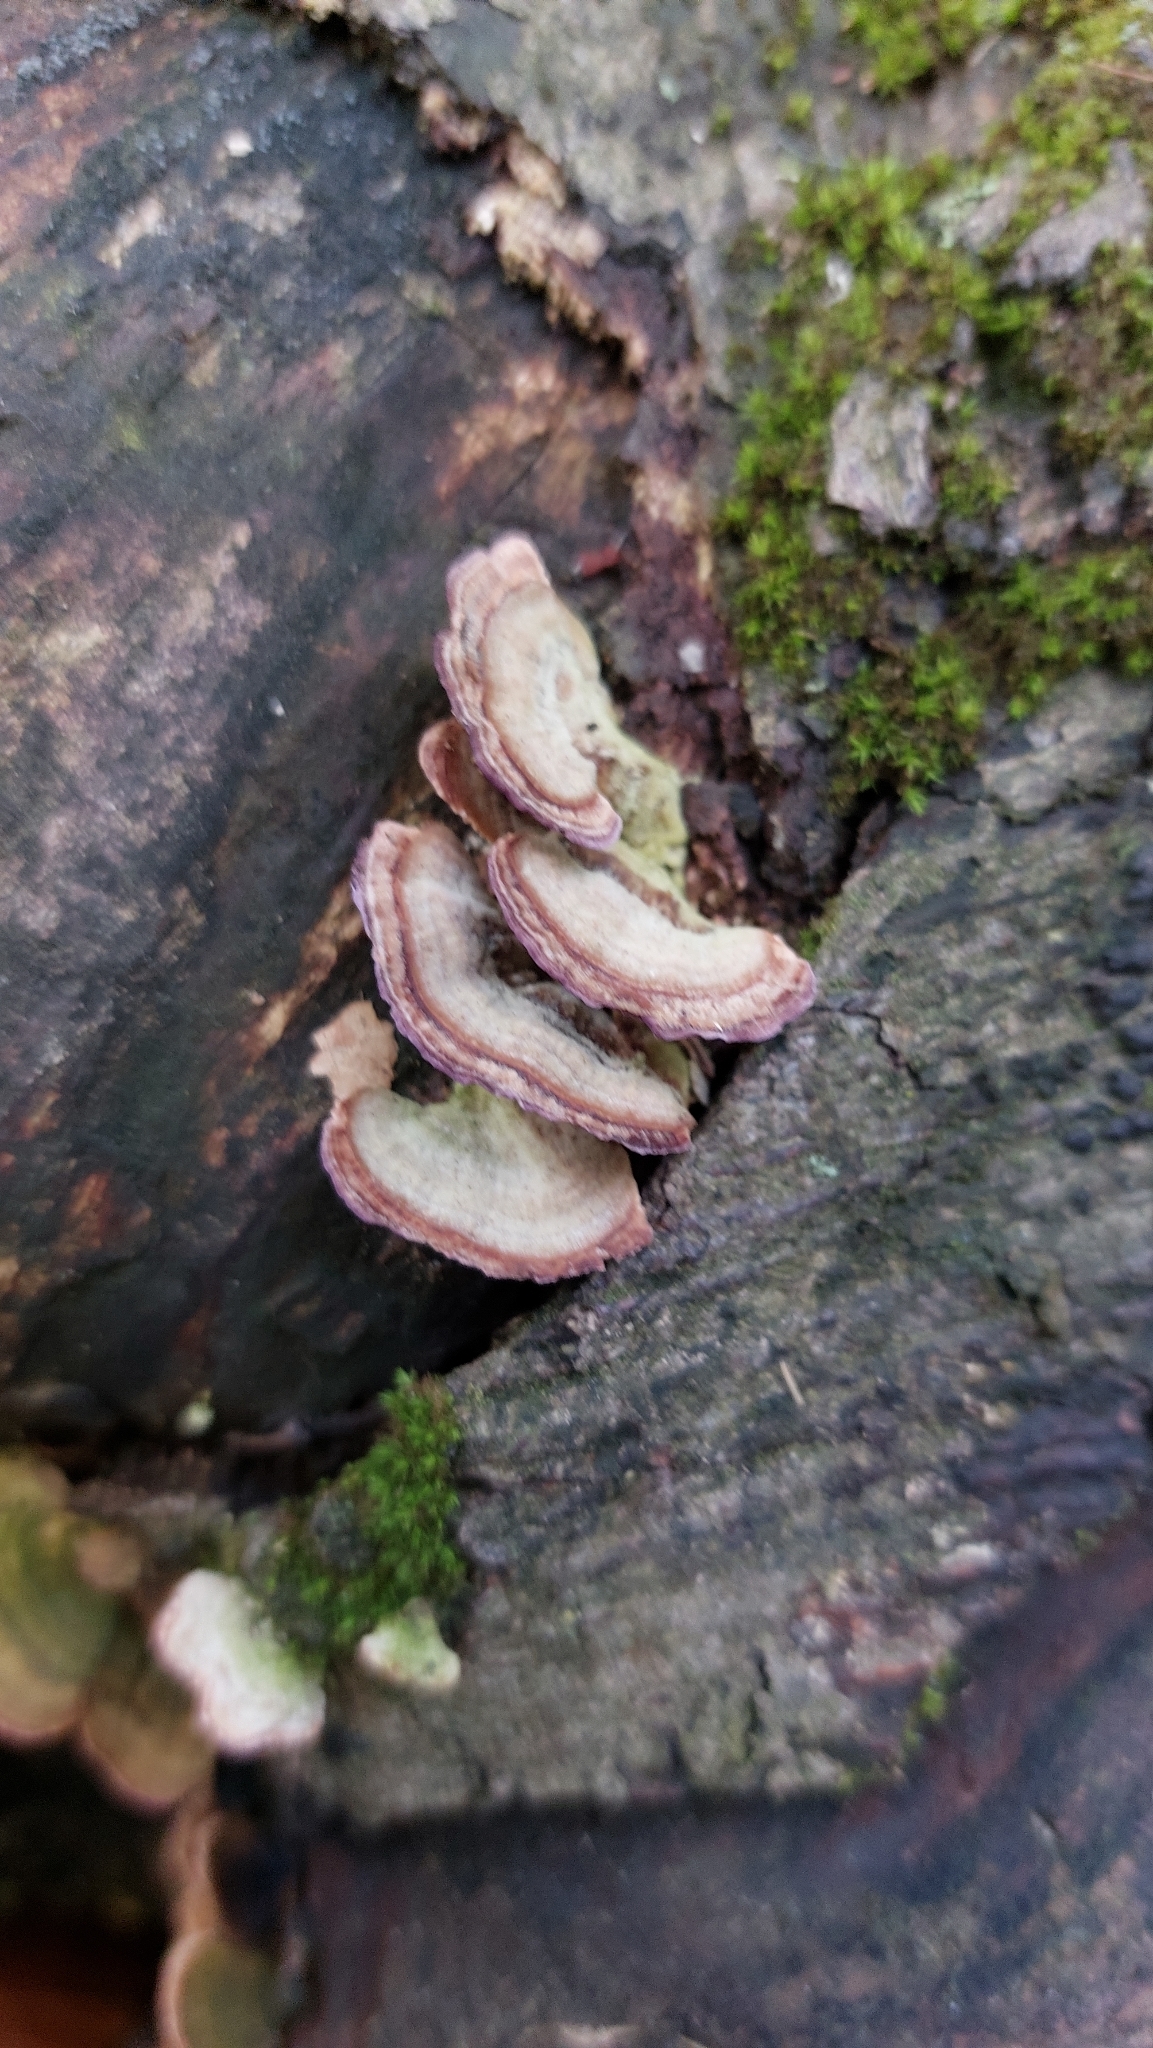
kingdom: Fungi
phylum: Basidiomycota
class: Agaricomycetes
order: Hymenochaetales
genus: Trichaptum
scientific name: Trichaptum biforme
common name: Violet-toothed polypore
